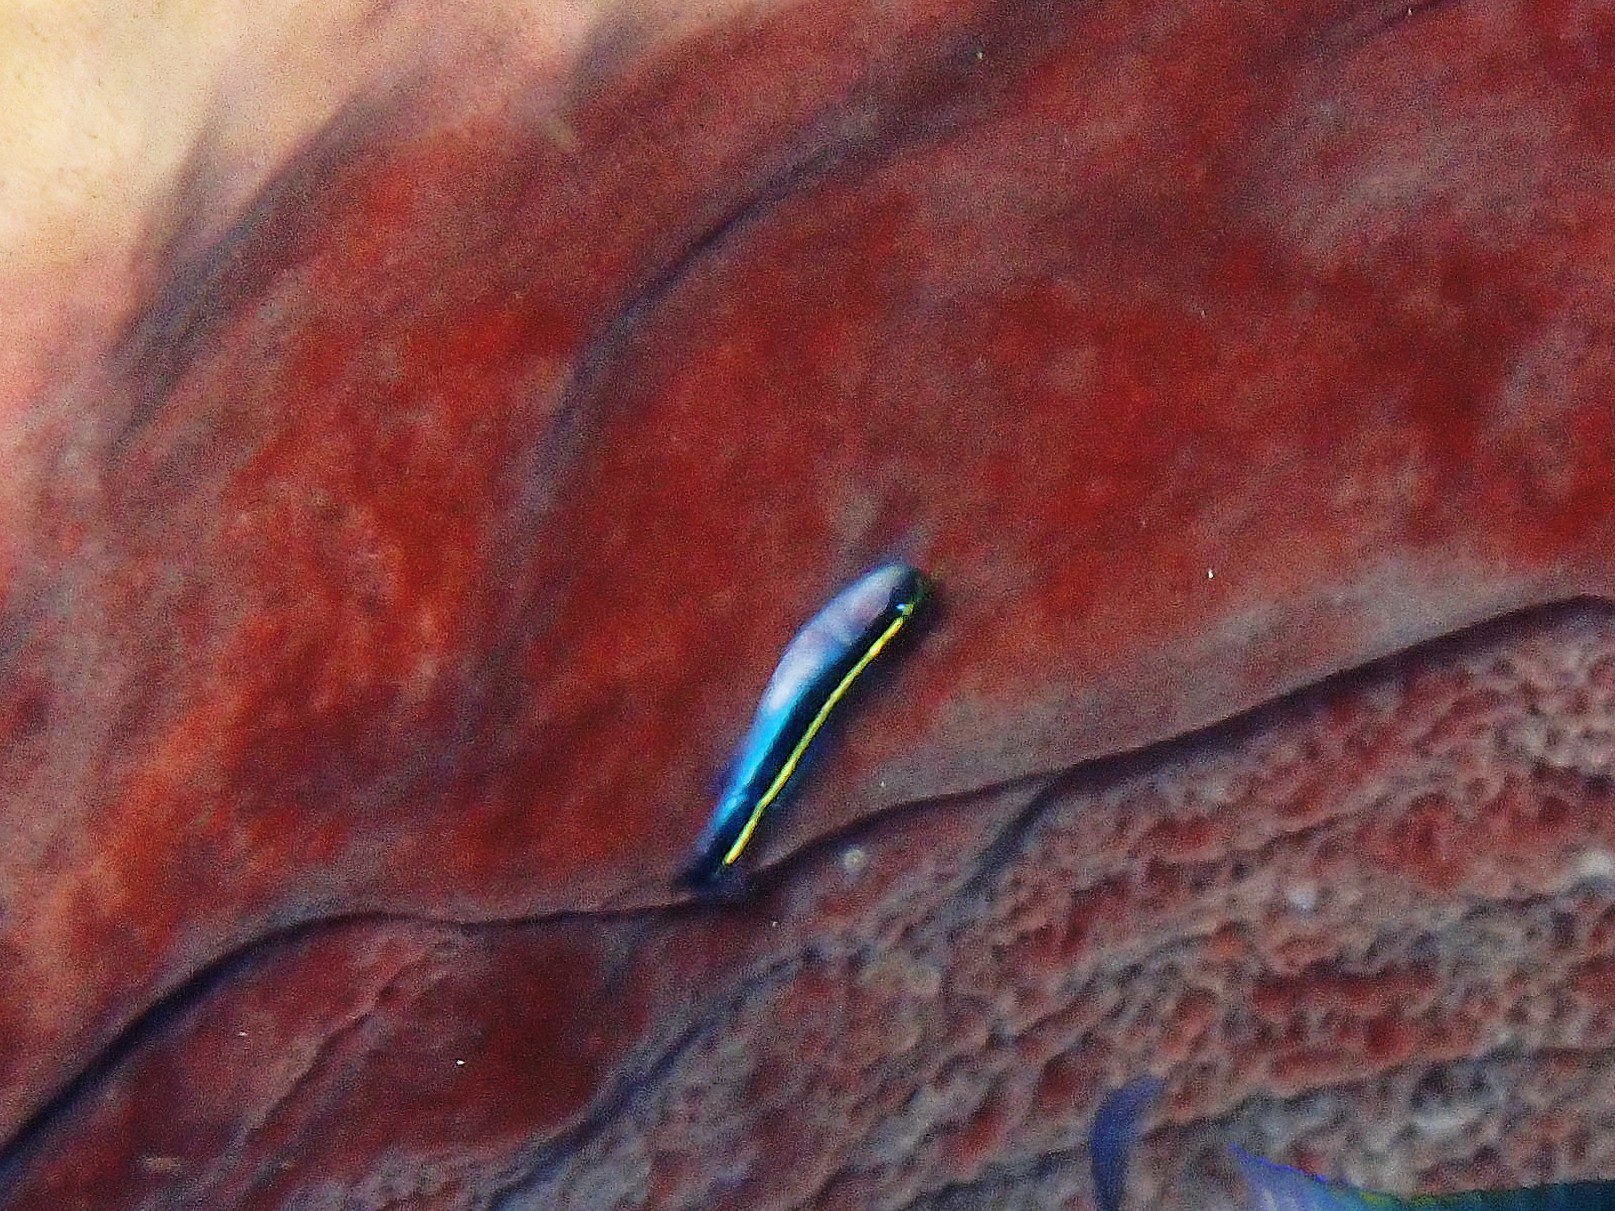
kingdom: Animalia
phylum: Chordata
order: Perciformes
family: Gobiidae
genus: Elacatinus
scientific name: Elacatinus randalli
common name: Yellownose goby
